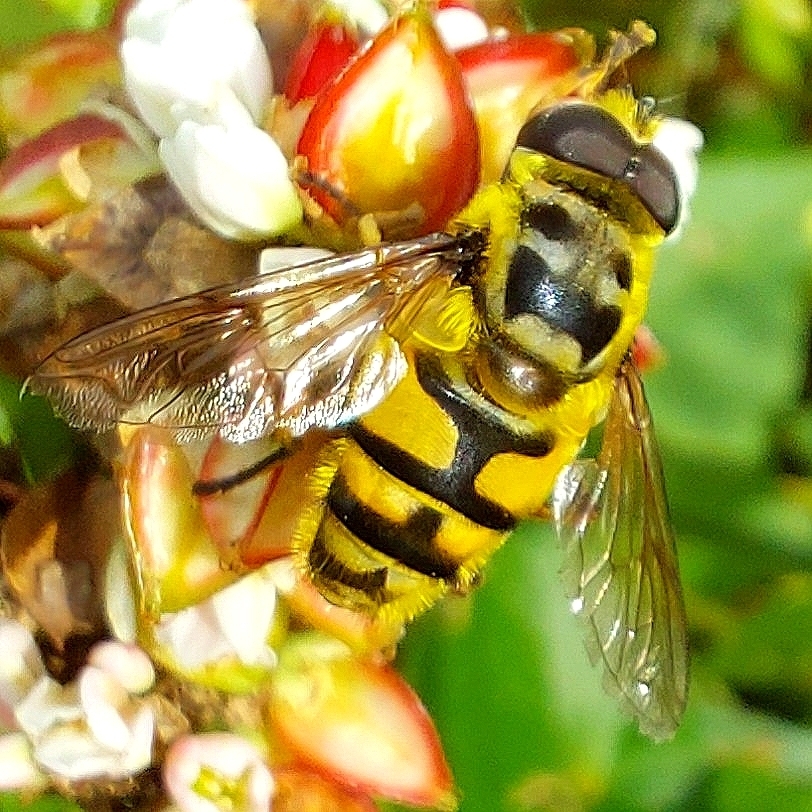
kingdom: Animalia
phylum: Arthropoda
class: Insecta
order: Diptera
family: Syrphidae
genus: Myathropa
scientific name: Myathropa florea
